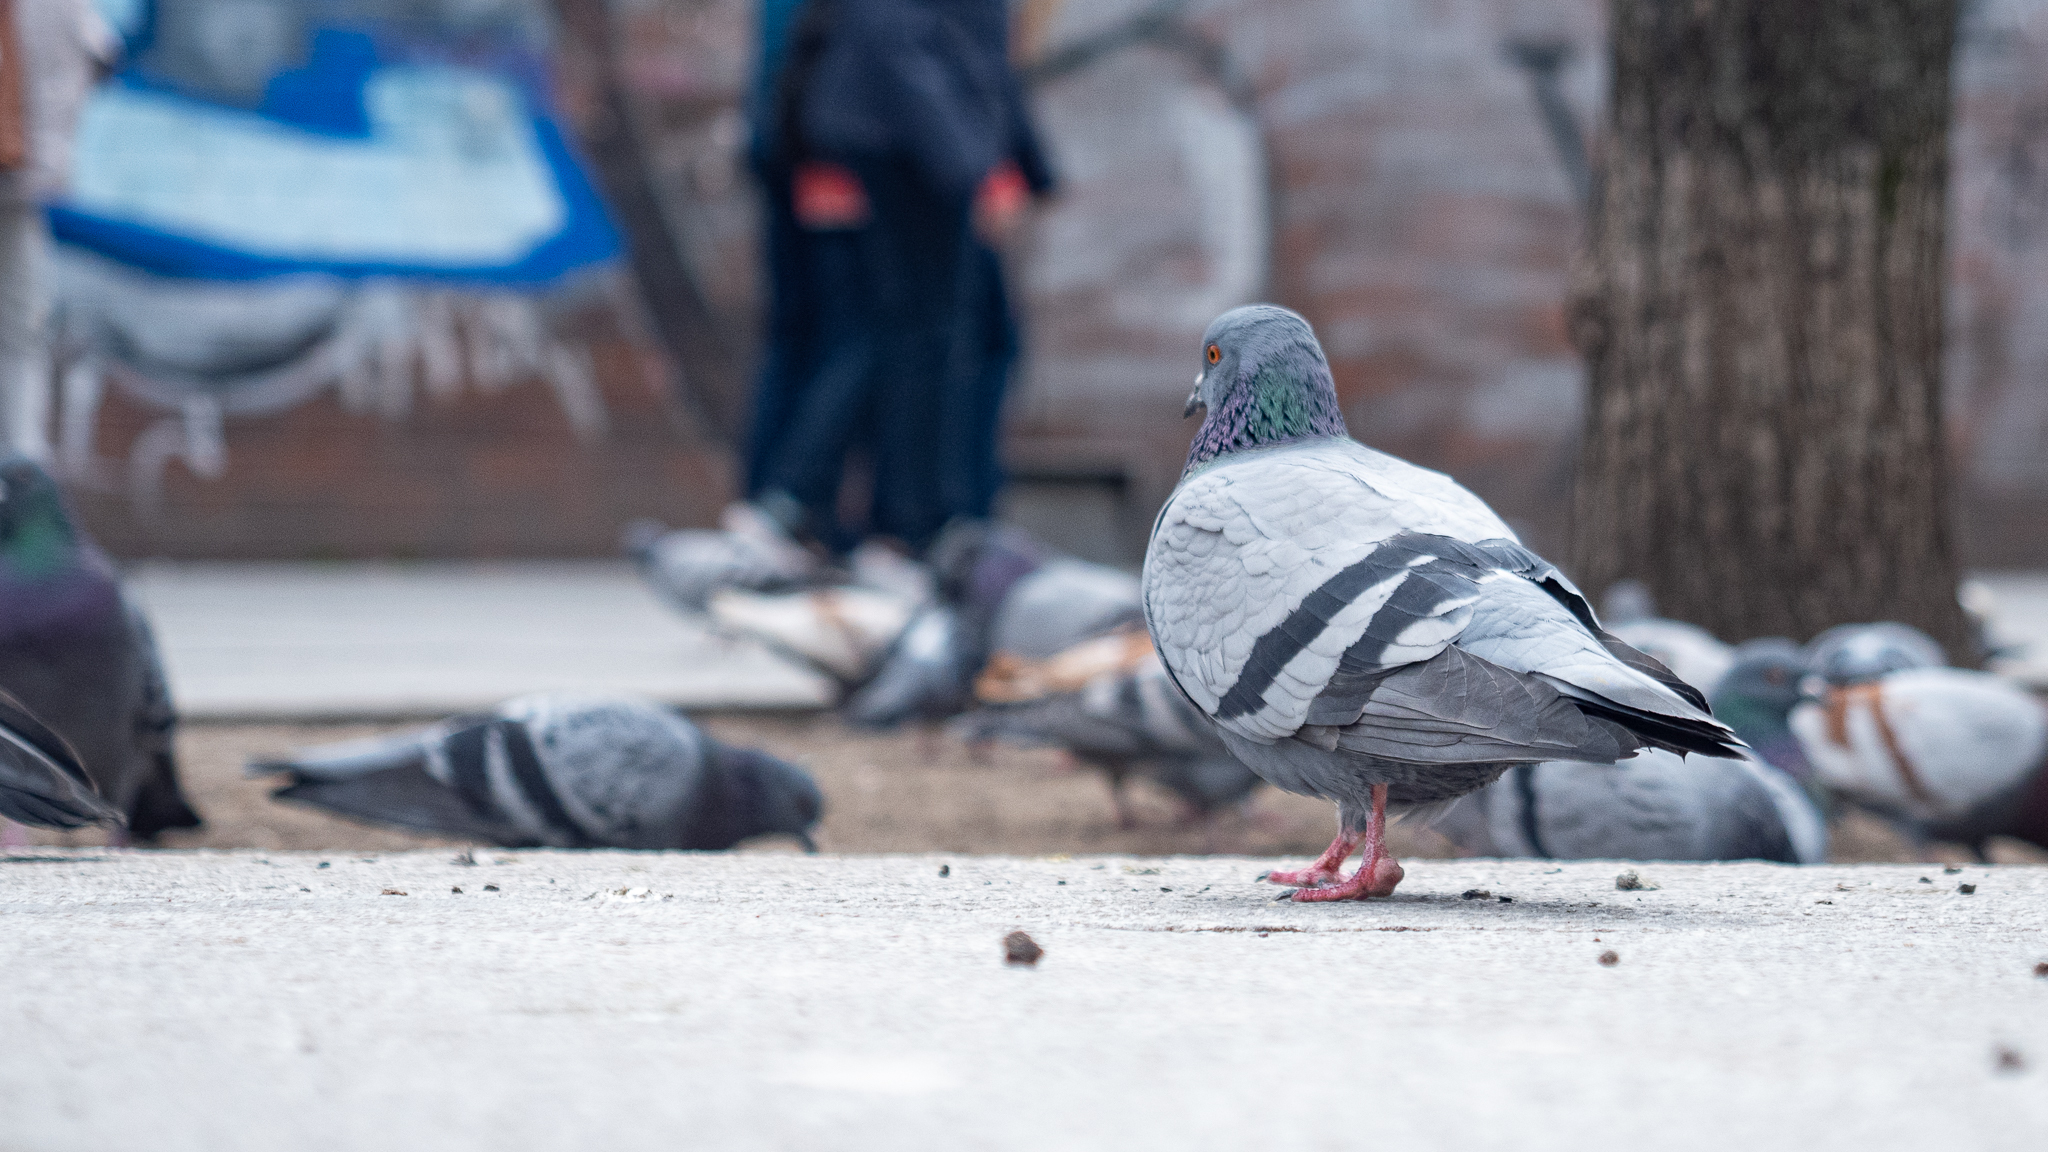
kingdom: Animalia
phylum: Chordata
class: Aves
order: Columbiformes
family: Columbidae
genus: Columba
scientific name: Columba livia
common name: Rock pigeon
